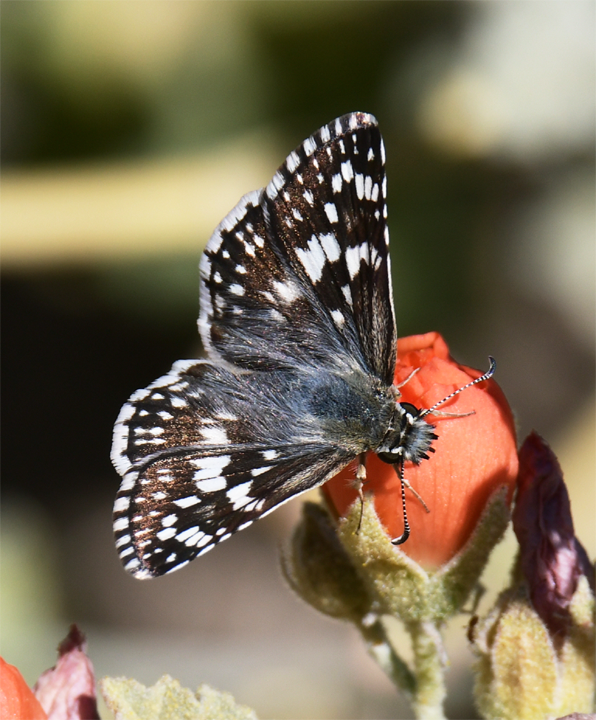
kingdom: Animalia
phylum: Arthropoda
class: Insecta
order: Lepidoptera
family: Hesperiidae
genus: Burnsius
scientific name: Burnsius albezens
